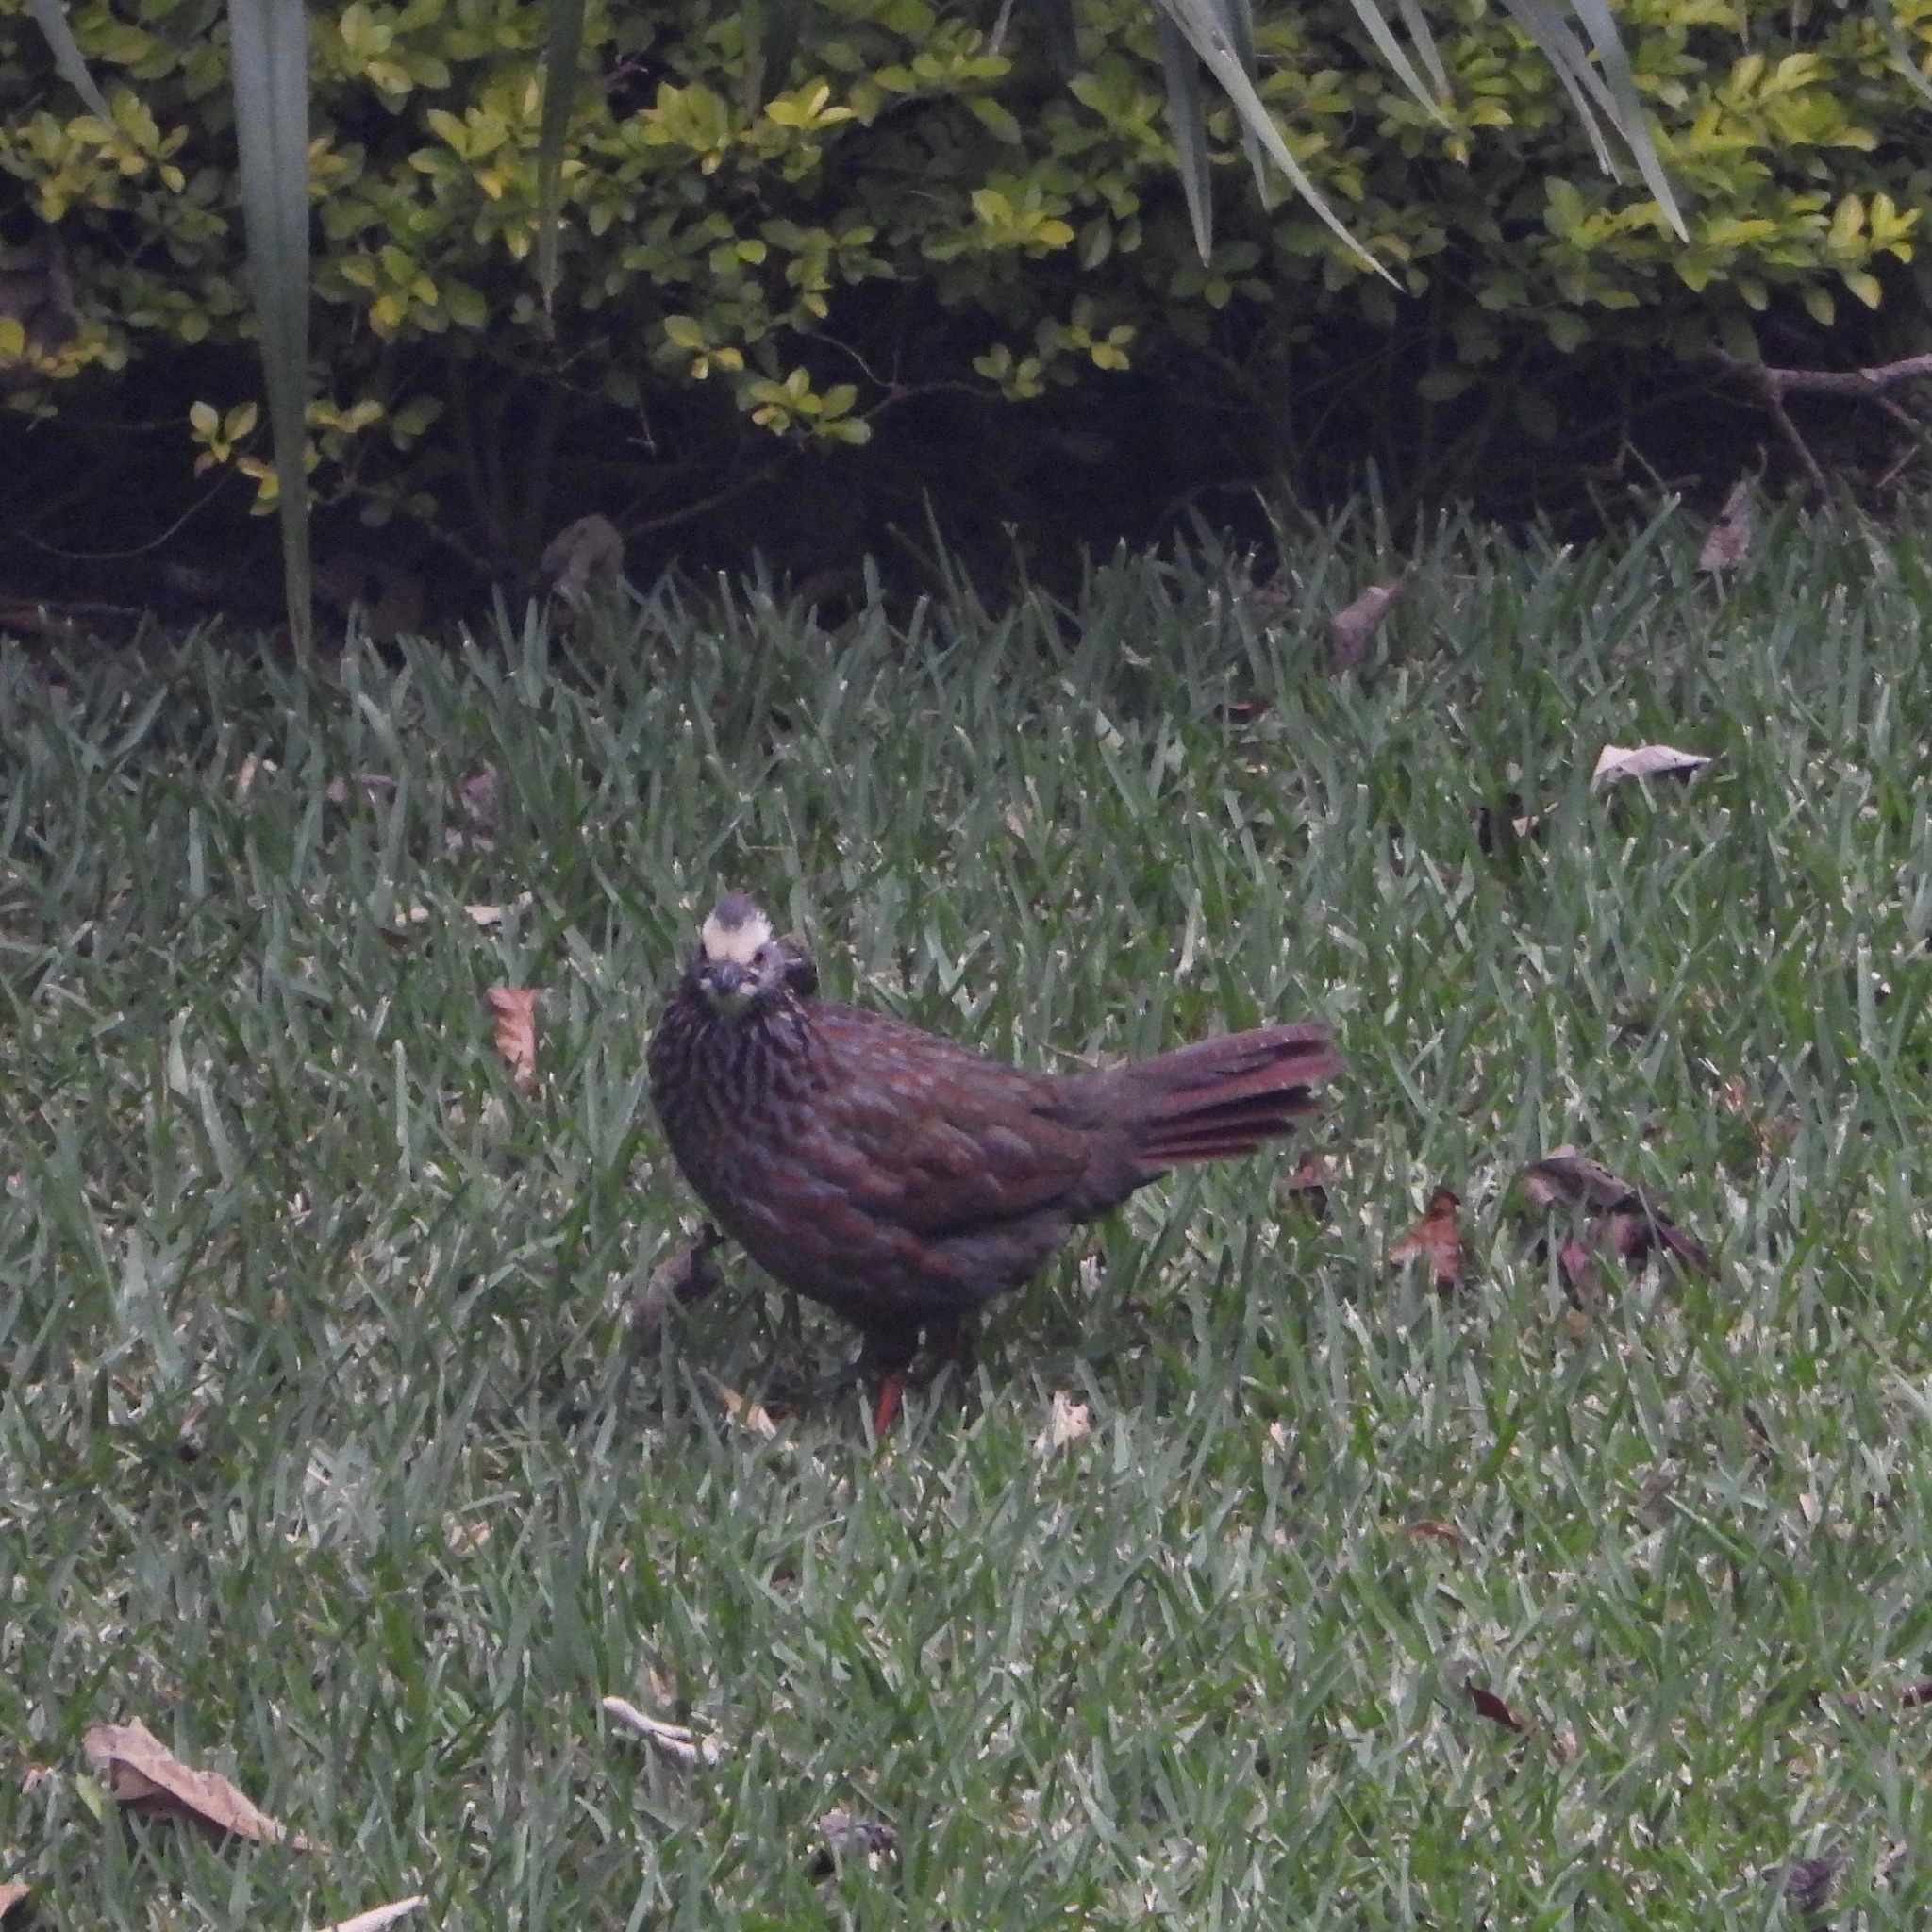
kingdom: Animalia
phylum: Chordata
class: Aves
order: Galliformes
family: Odontophoridae
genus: Dendrortyx
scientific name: Dendrortyx leucophrys
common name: Buffy-crowned wood-partridge
